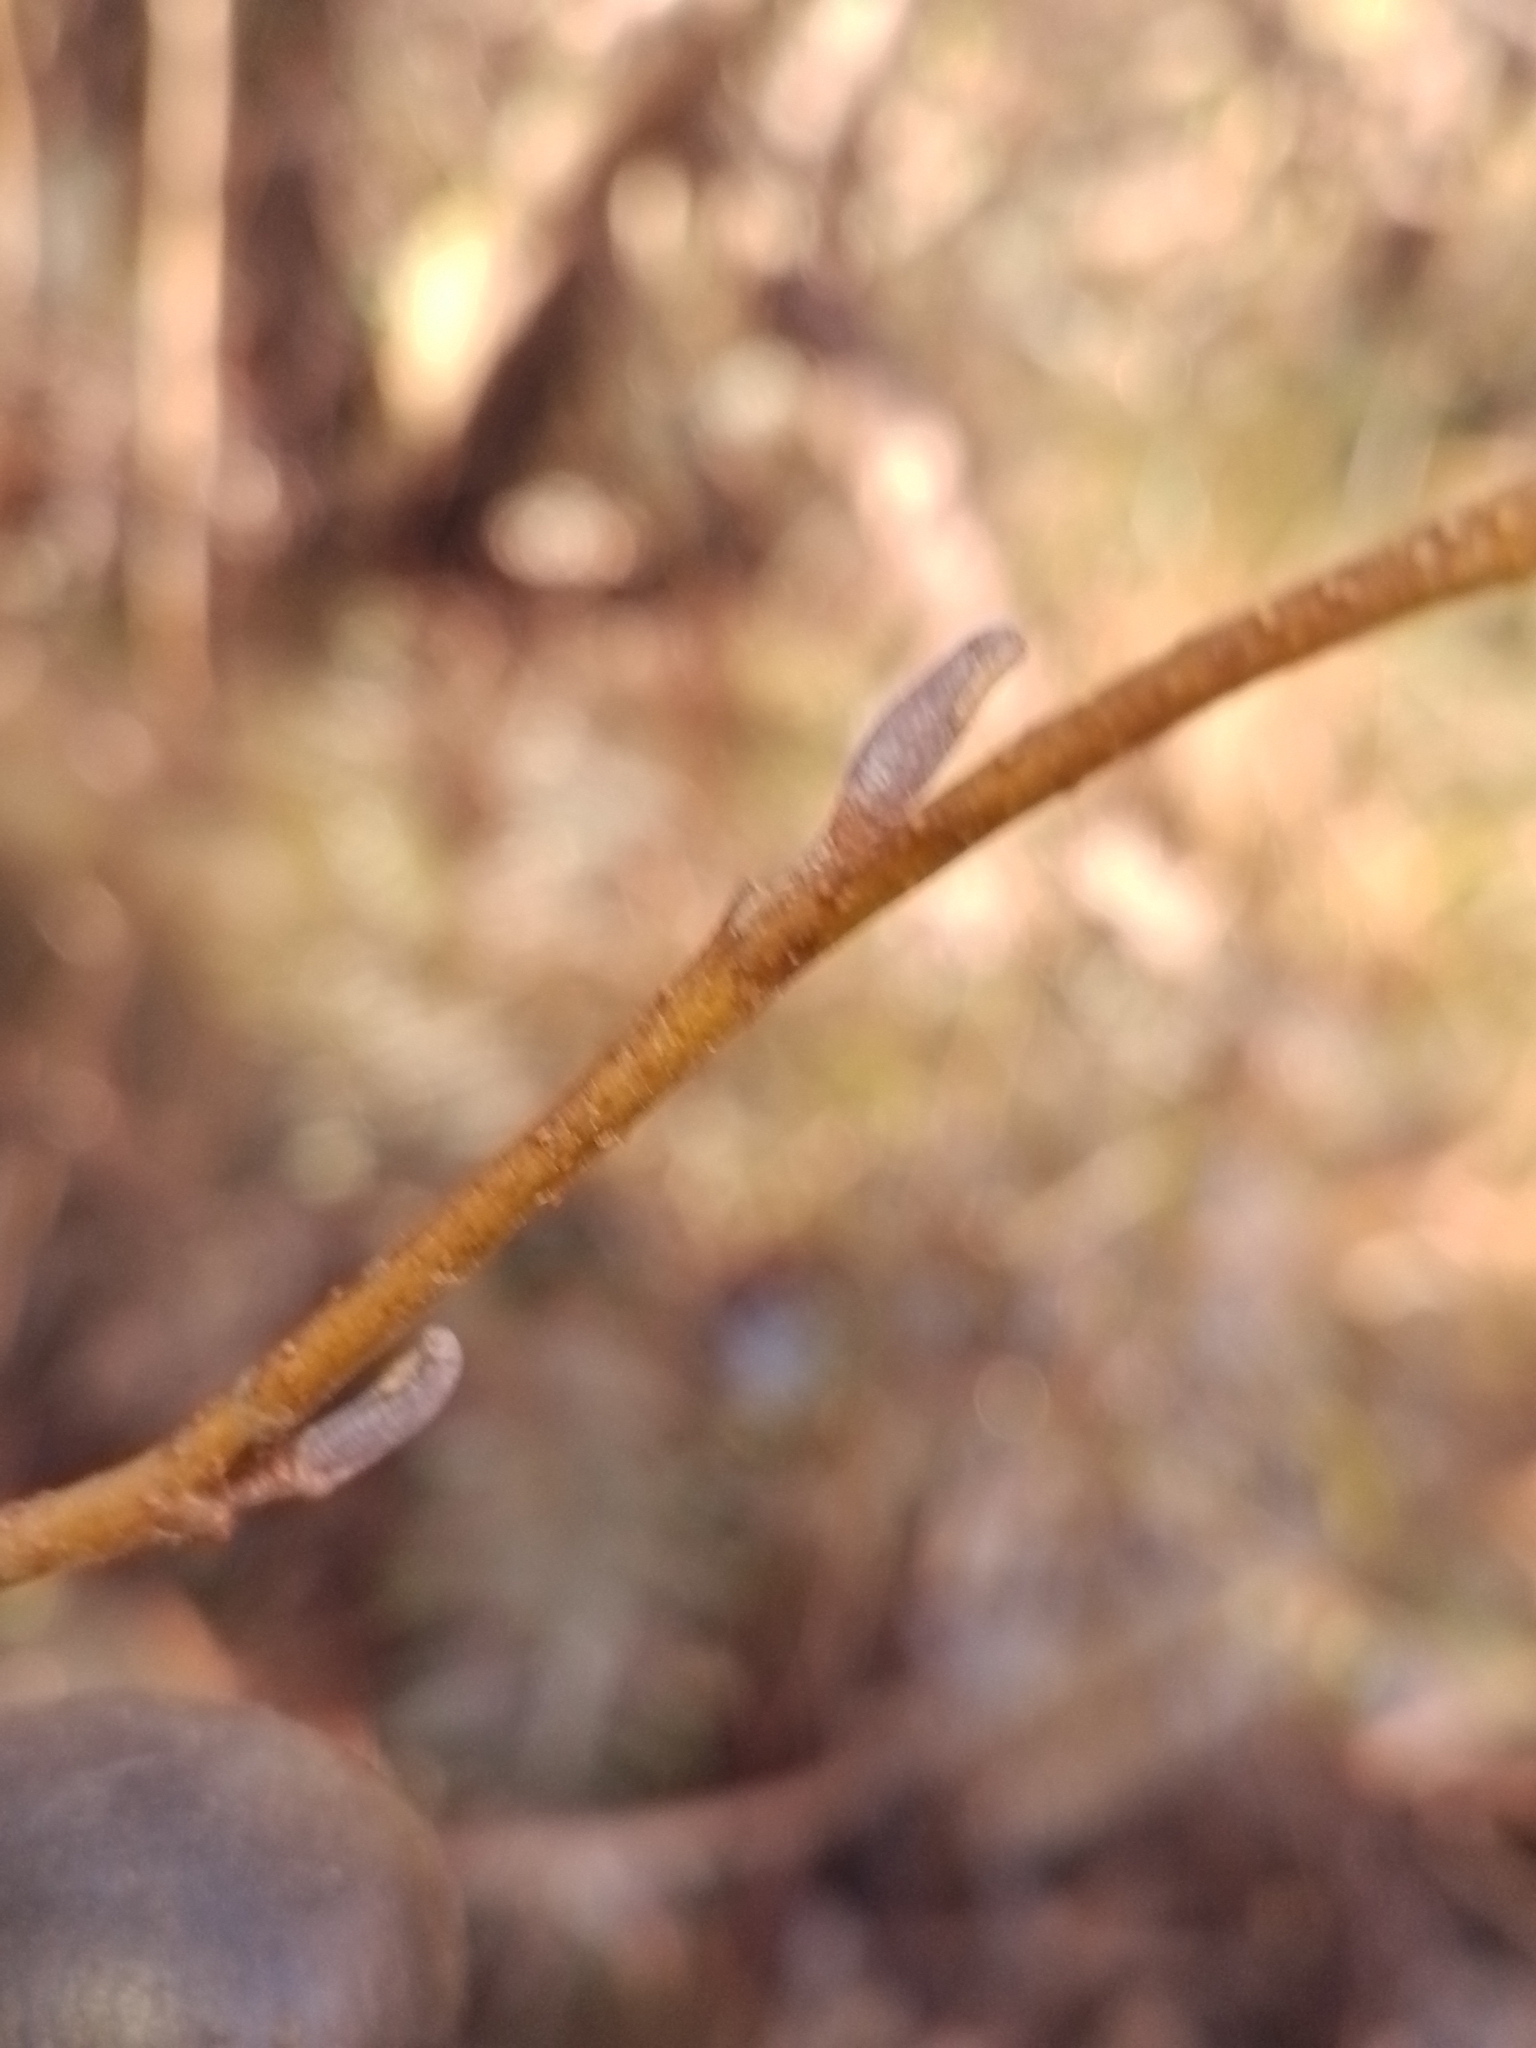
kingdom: Plantae
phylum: Tracheophyta
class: Magnoliopsida
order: Fagales
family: Betulaceae
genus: Alnus
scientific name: Alnus glutinosa
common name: Black alder
